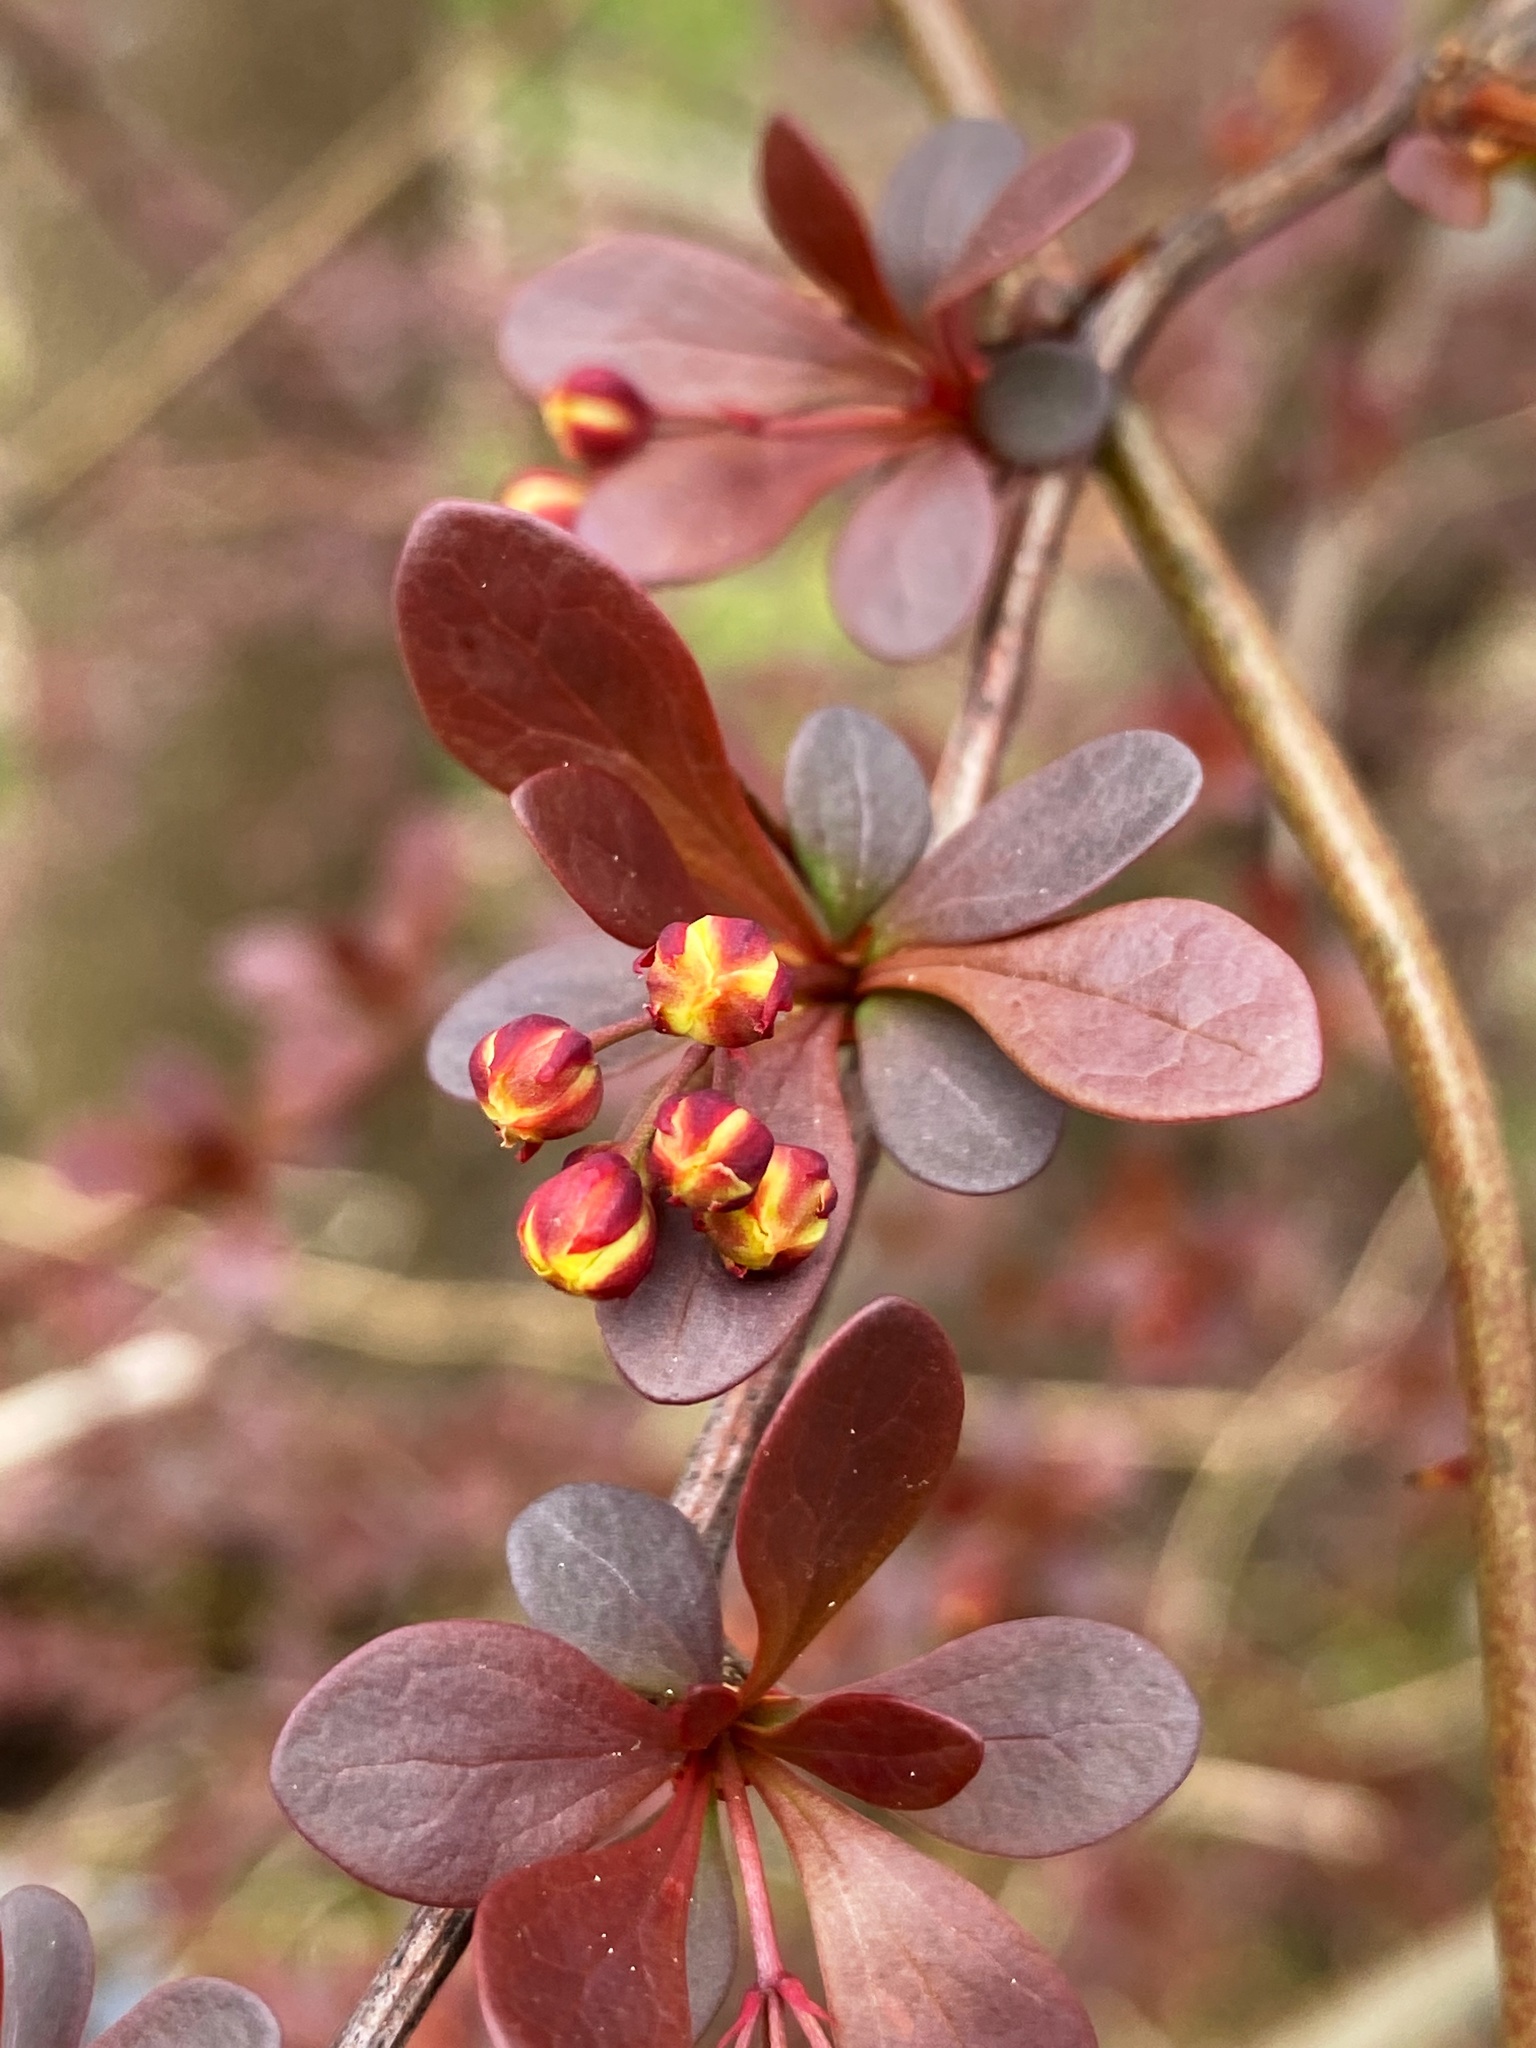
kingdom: Plantae
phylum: Tracheophyta
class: Magnoliopsida
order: Ranunculales
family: Berberidaceae
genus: Berberis
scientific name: Berberis thunbergii
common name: Japanese barberry
